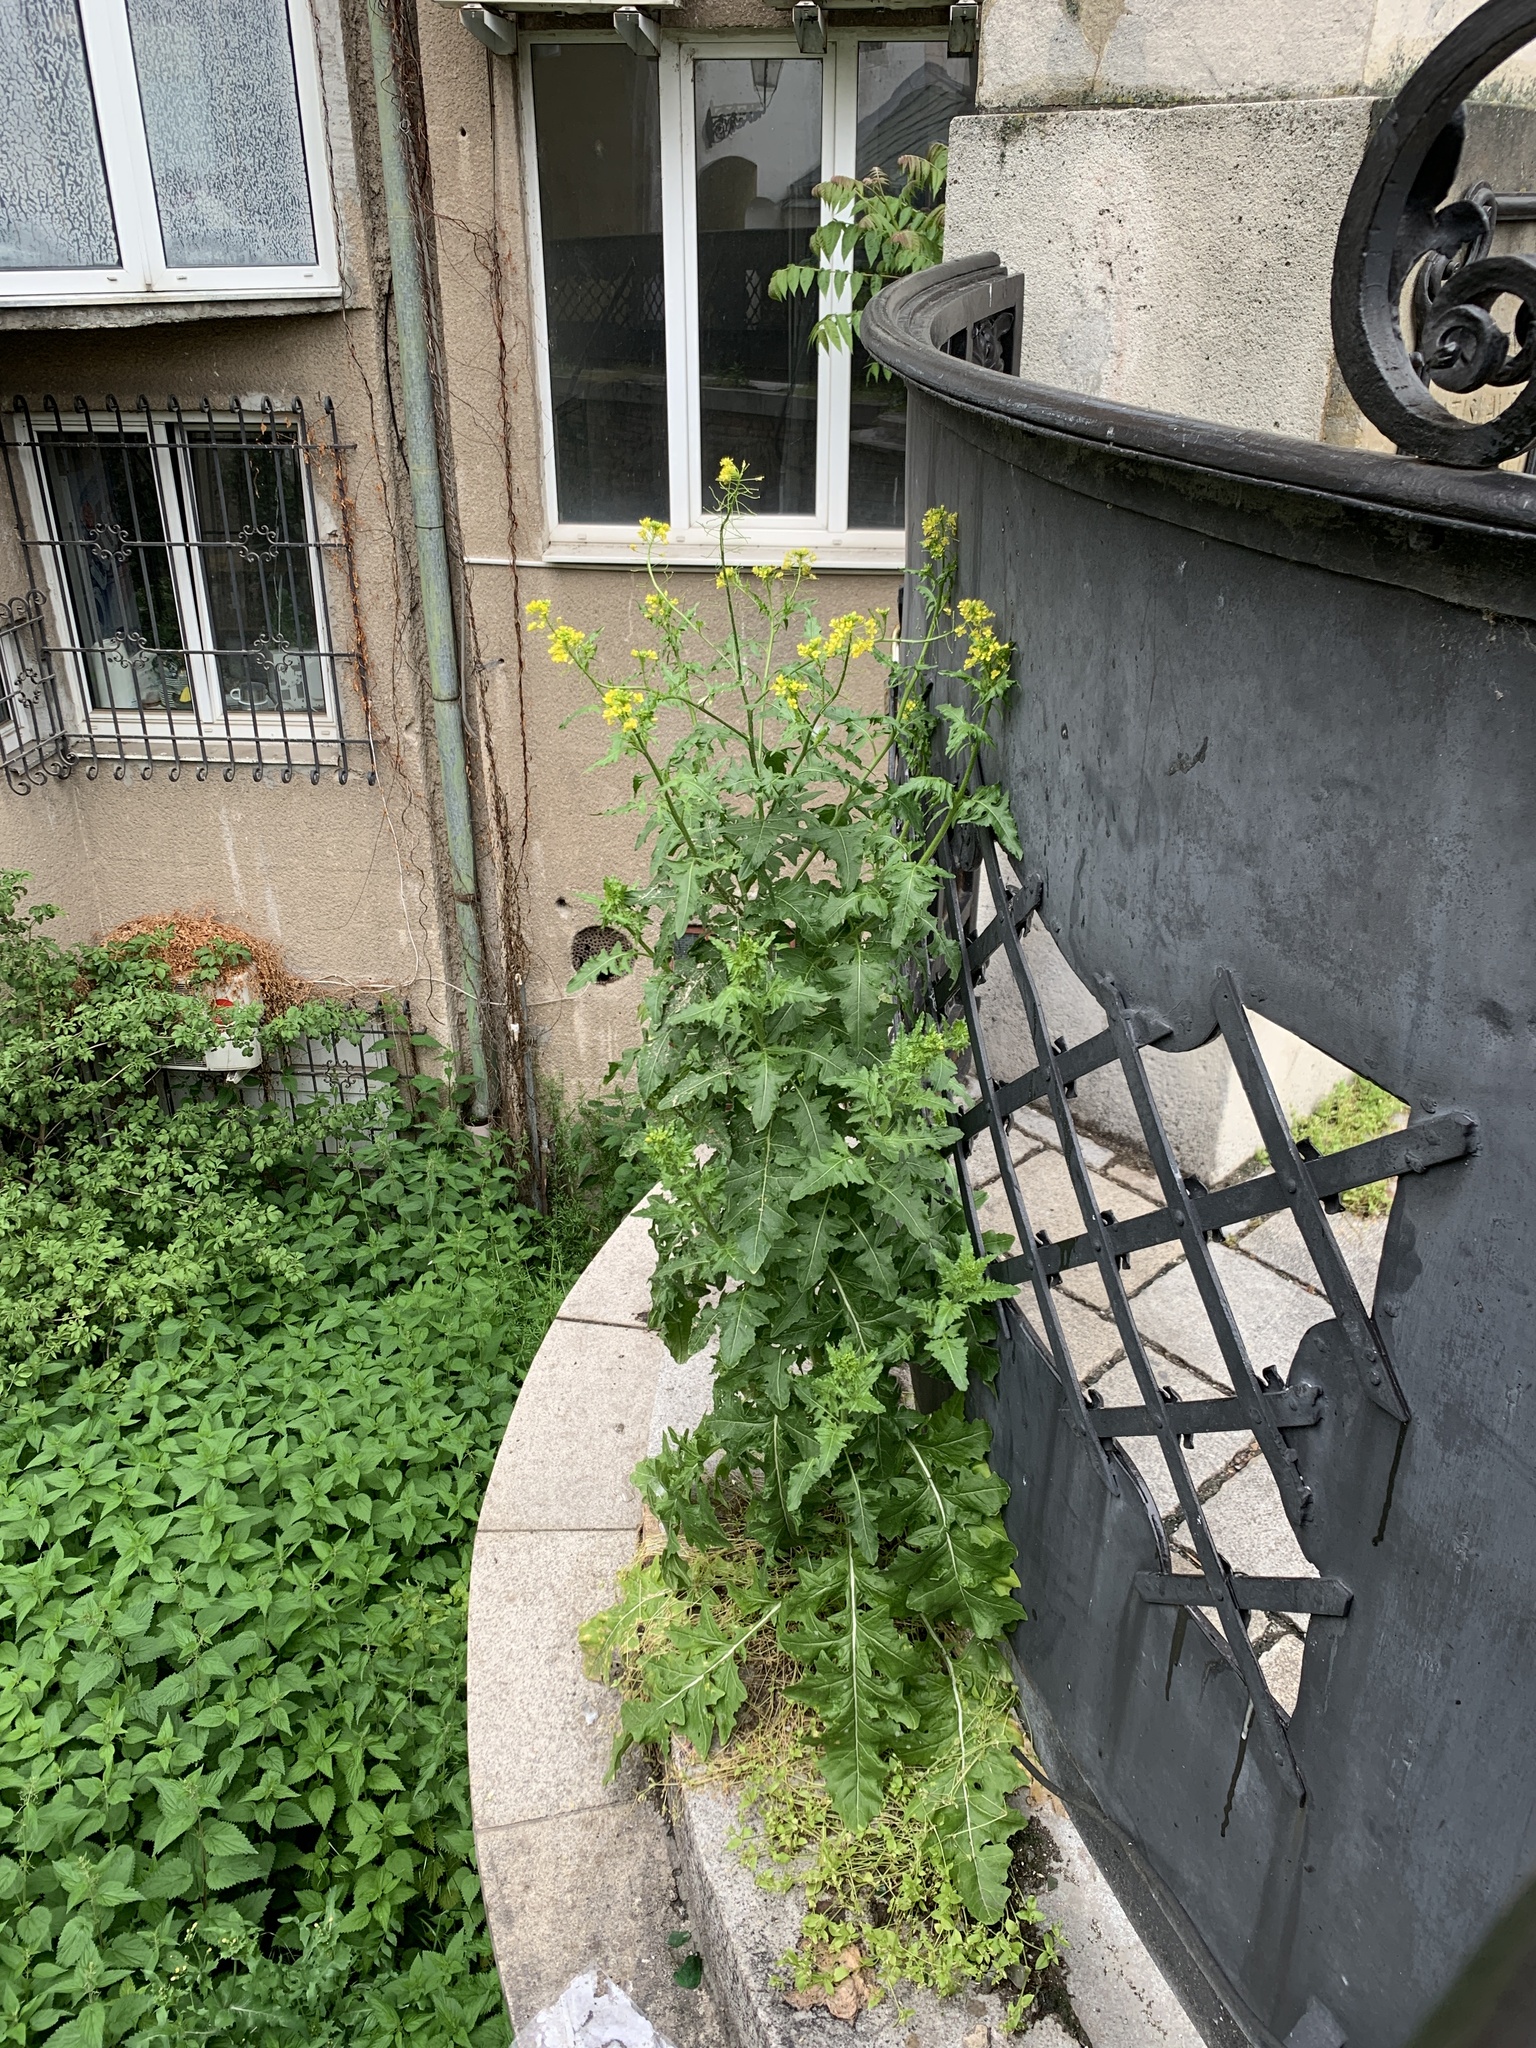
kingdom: Plantae
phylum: Tracheophyta
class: Magnoliopsida
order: Brassicales
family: Brassicaceae
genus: Sisymbrium
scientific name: Sisymbrium loeselii
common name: False london-rocket
